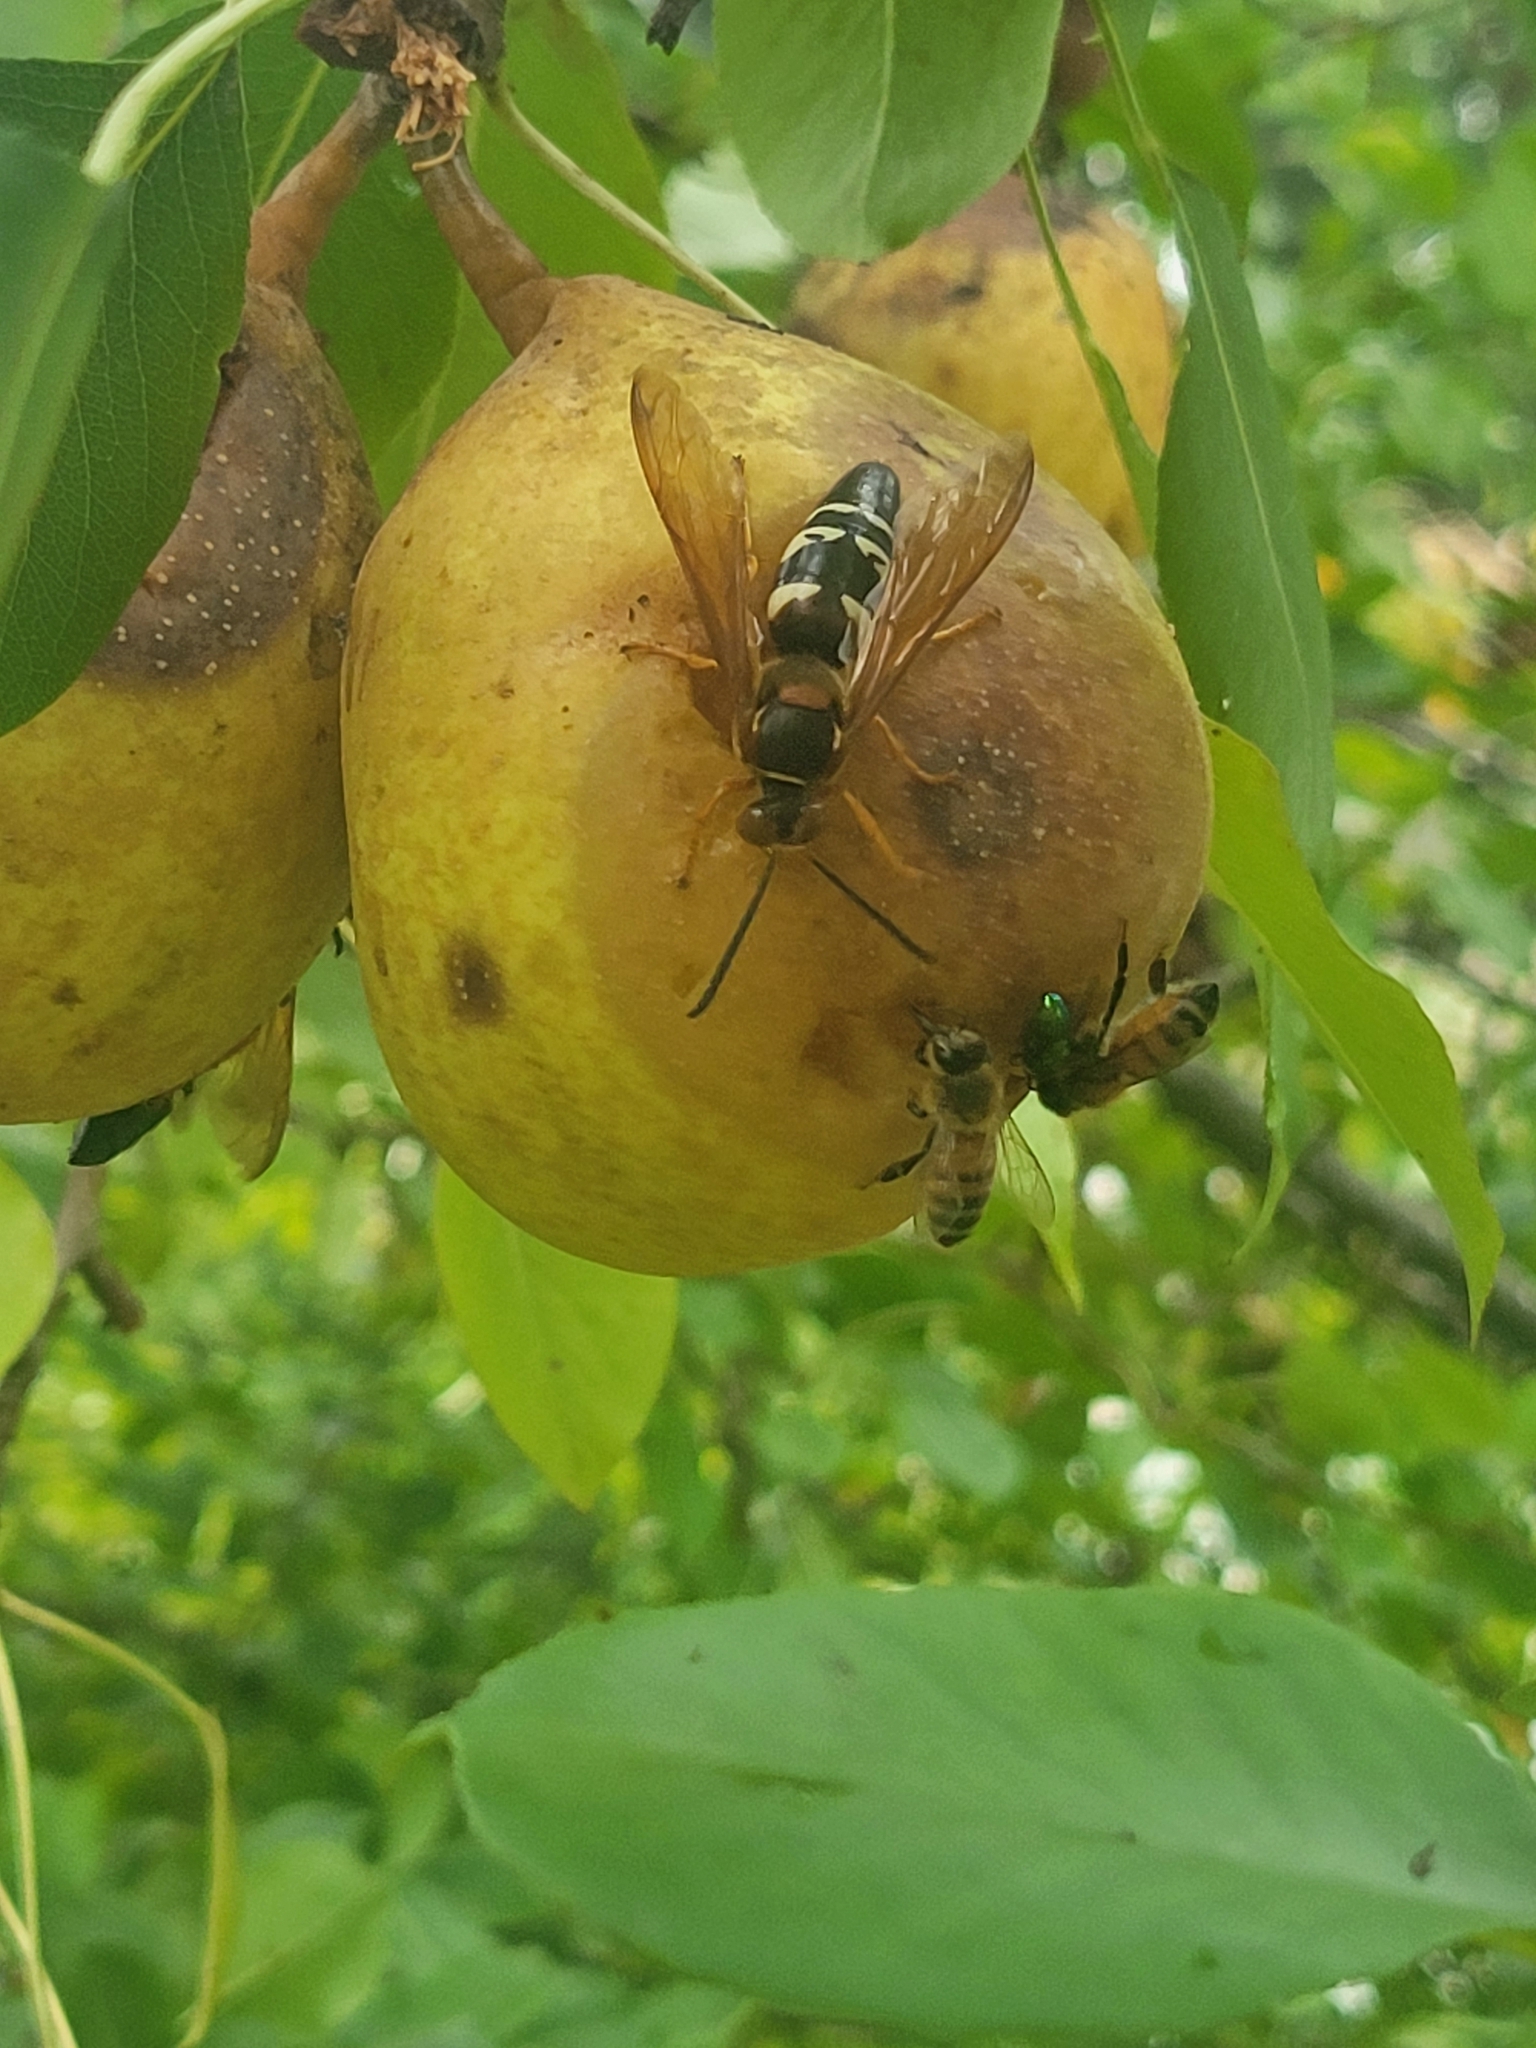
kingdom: Animalia
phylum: Arthropoda
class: Insecta
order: Hymenoptera
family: Crabronidae
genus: Sphecius
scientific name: Sphecius speciosus
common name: Cicada killer
